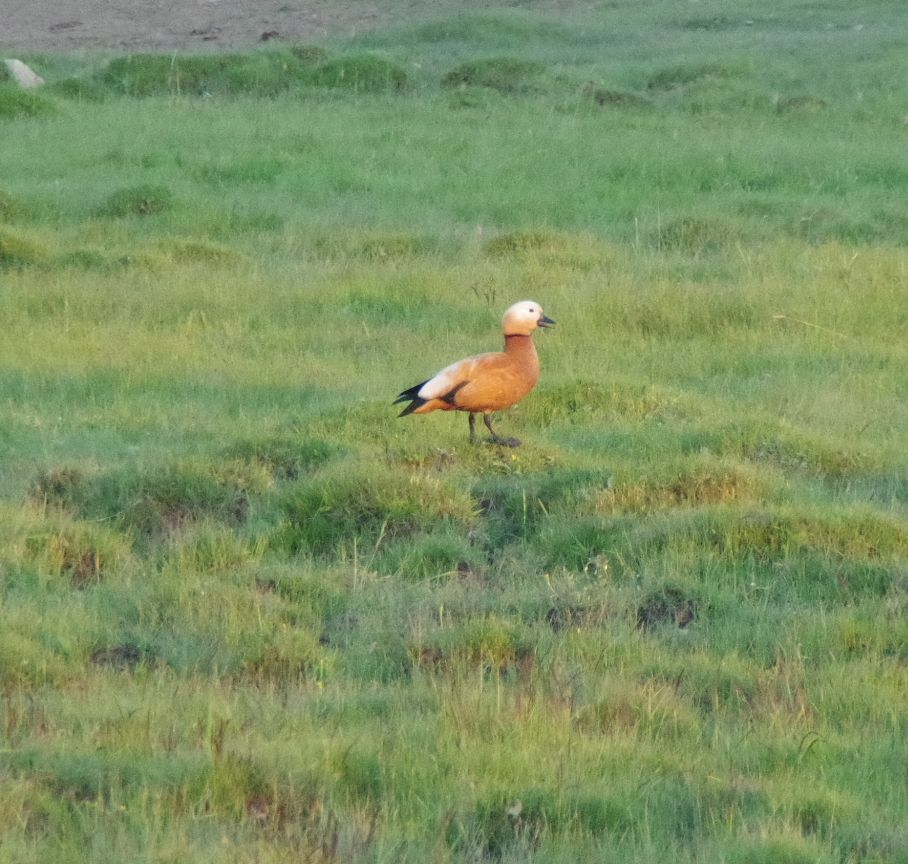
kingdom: Animalia
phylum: Chordata
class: Aves
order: Anseriformes
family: Anatidae
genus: Tadorna
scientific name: Tadorna ferruginea
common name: Ruddy shelduck
